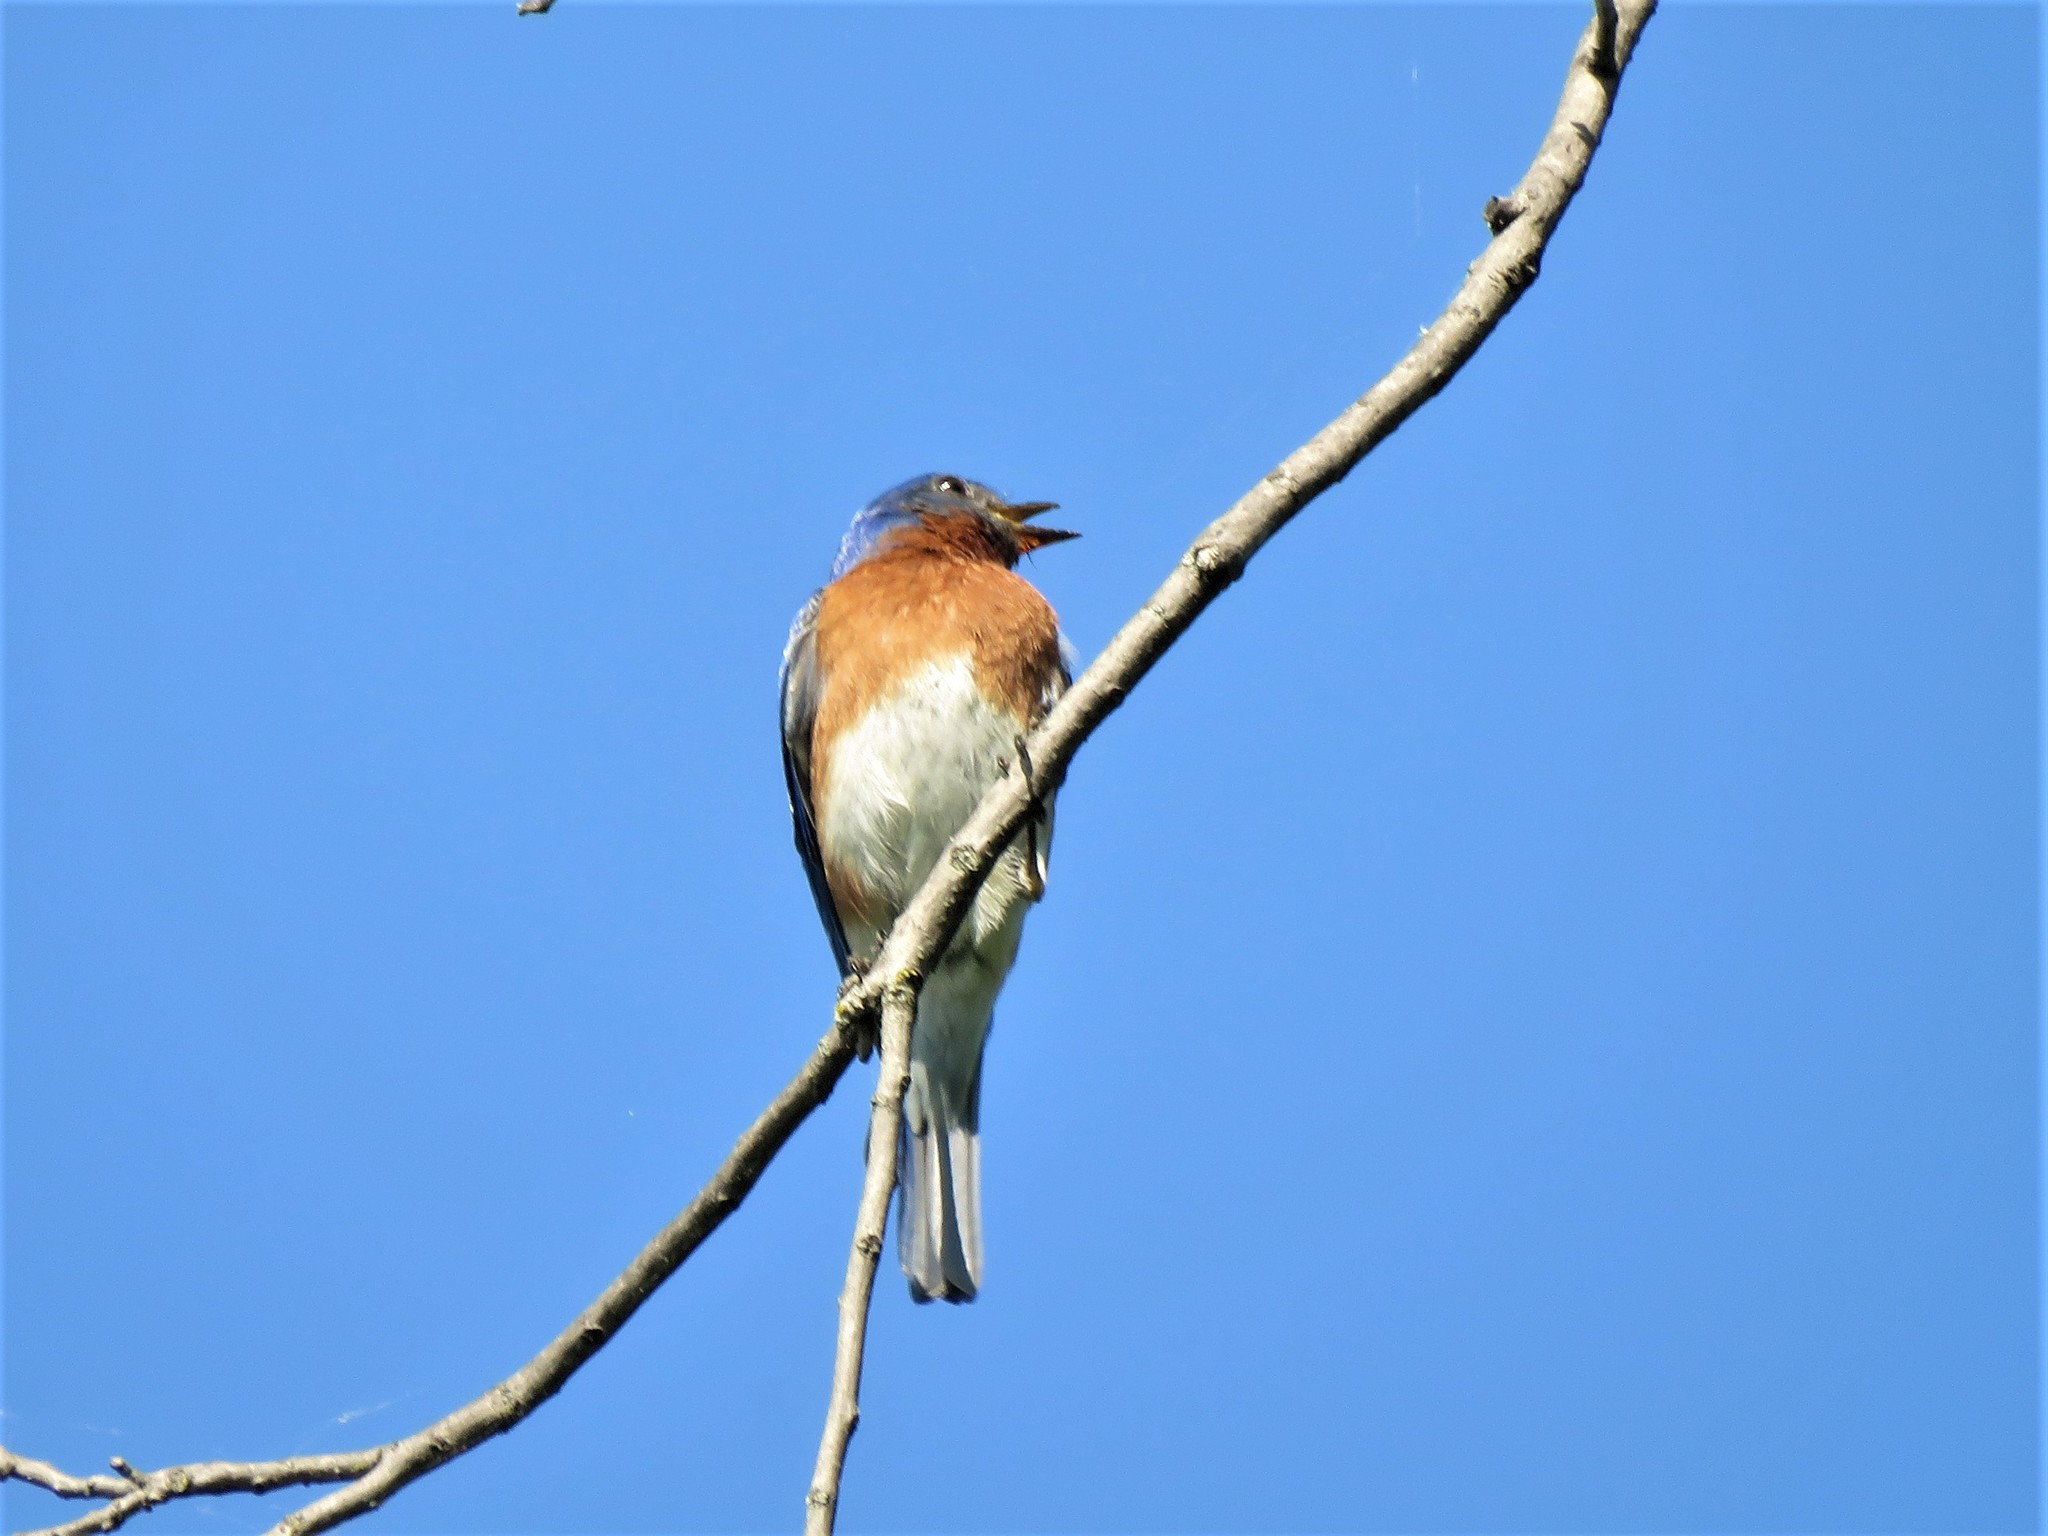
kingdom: Animalia
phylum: Chordata
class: Aves
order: Passeriformes
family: Turdidae
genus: Sialia
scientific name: Sialia sialis
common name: Eastern bluebird
